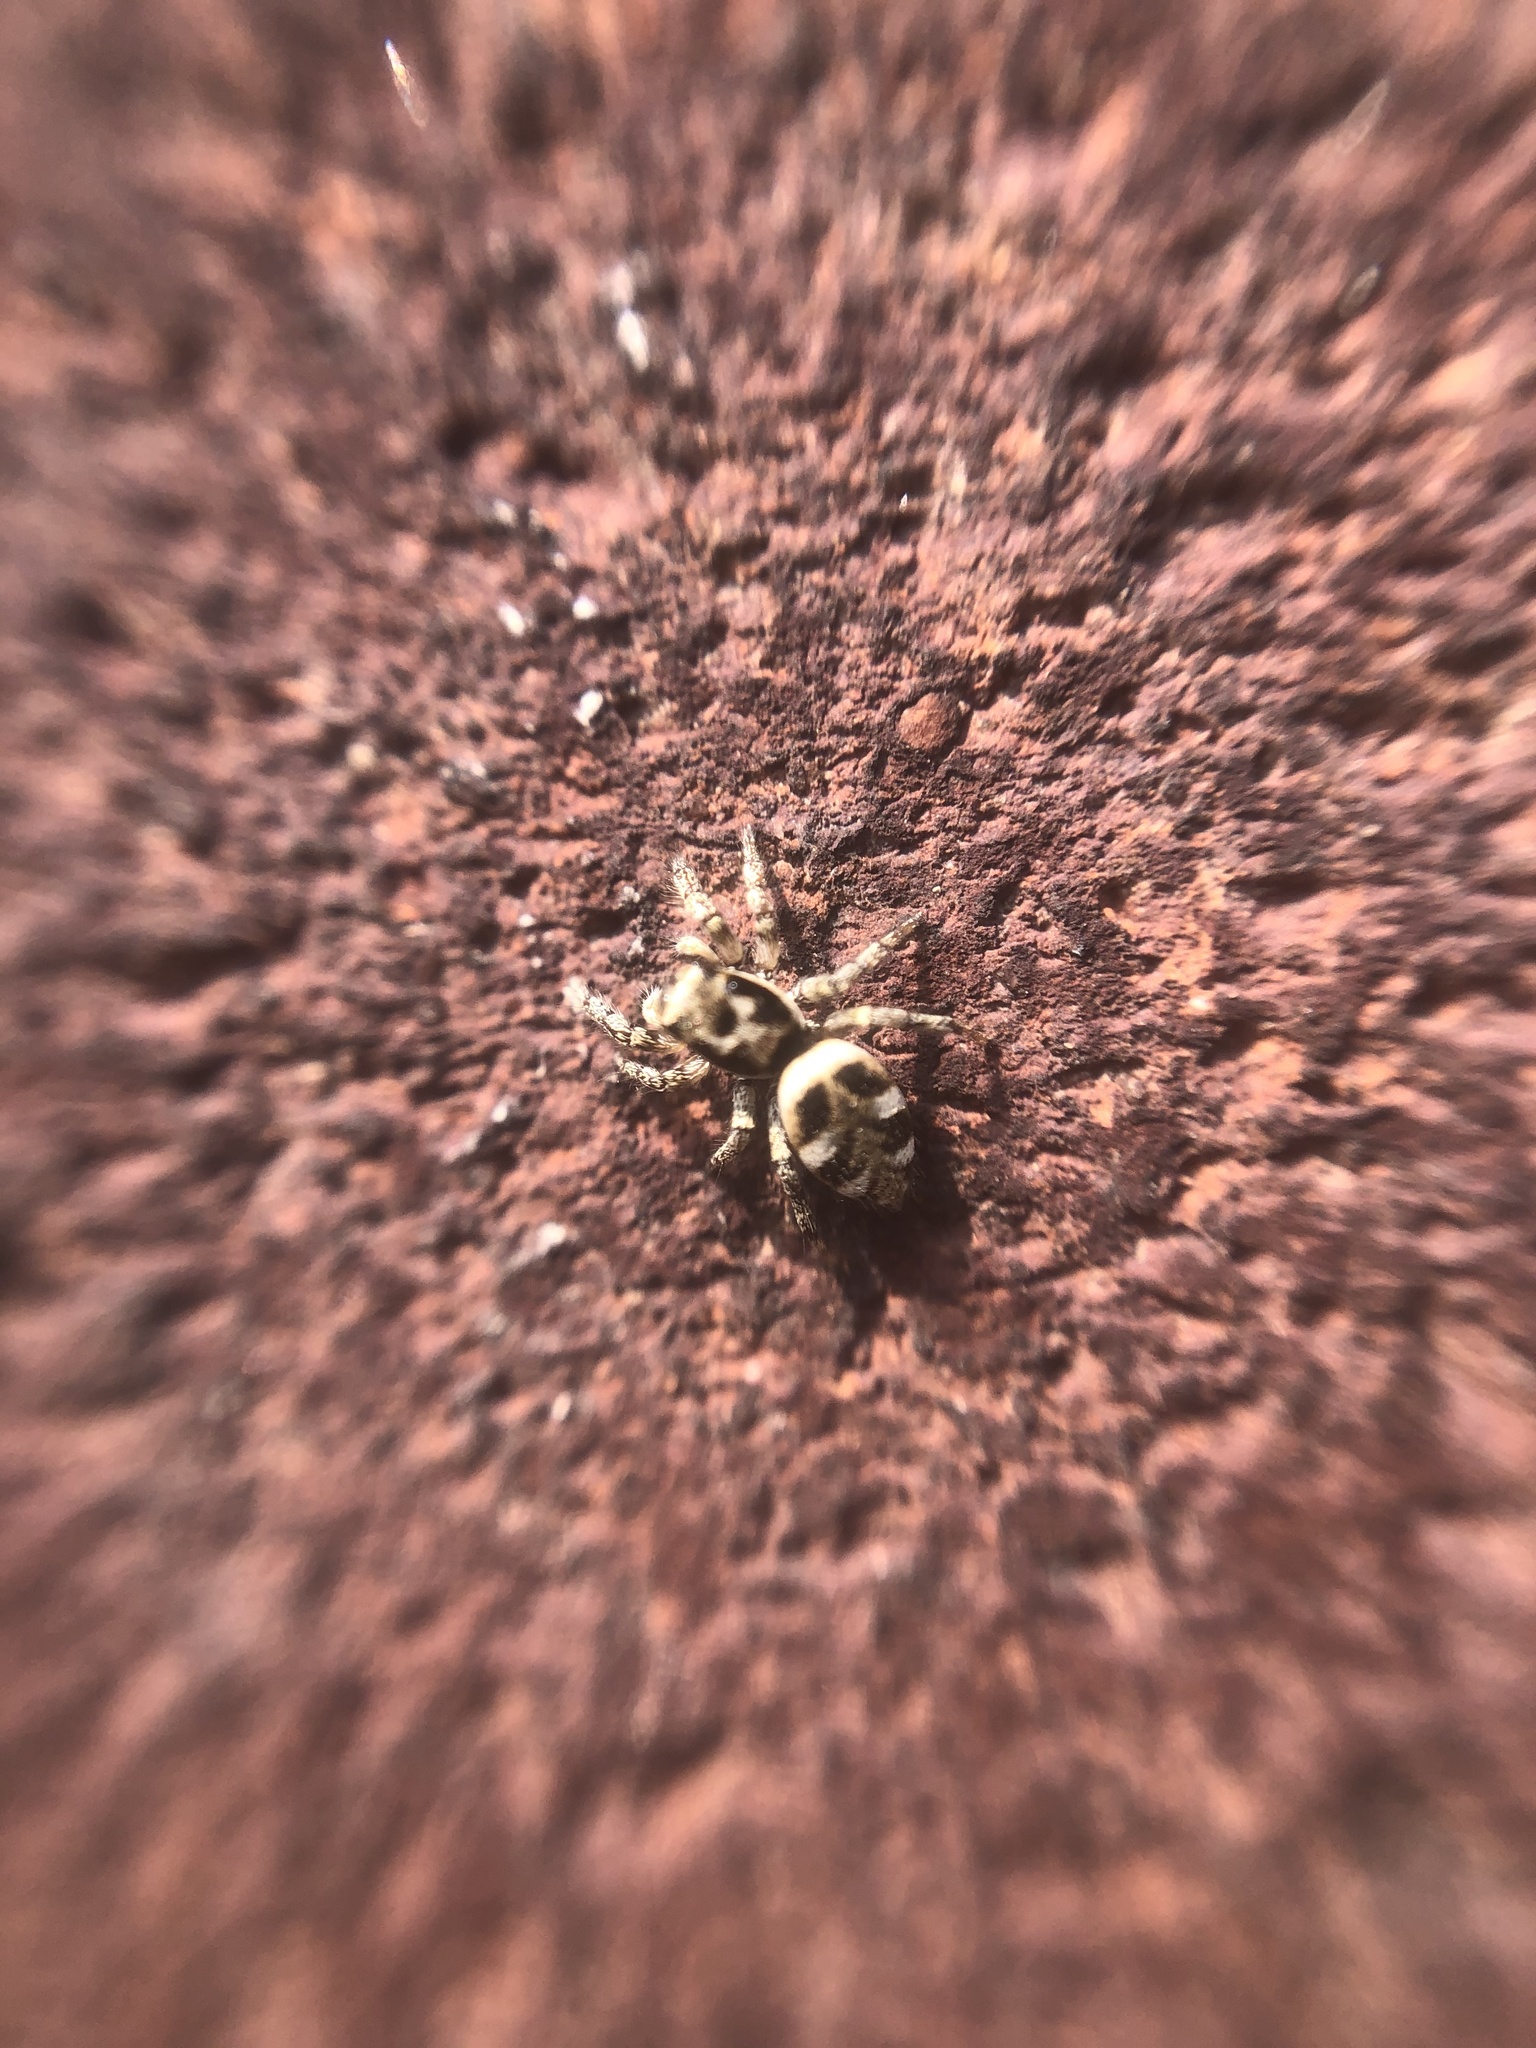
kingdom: Animalia
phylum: Arthropoda
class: Arachnida
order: Araneae
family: Salticidae
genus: Salticus
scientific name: Salticus scenicus
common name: Zebra jumper
